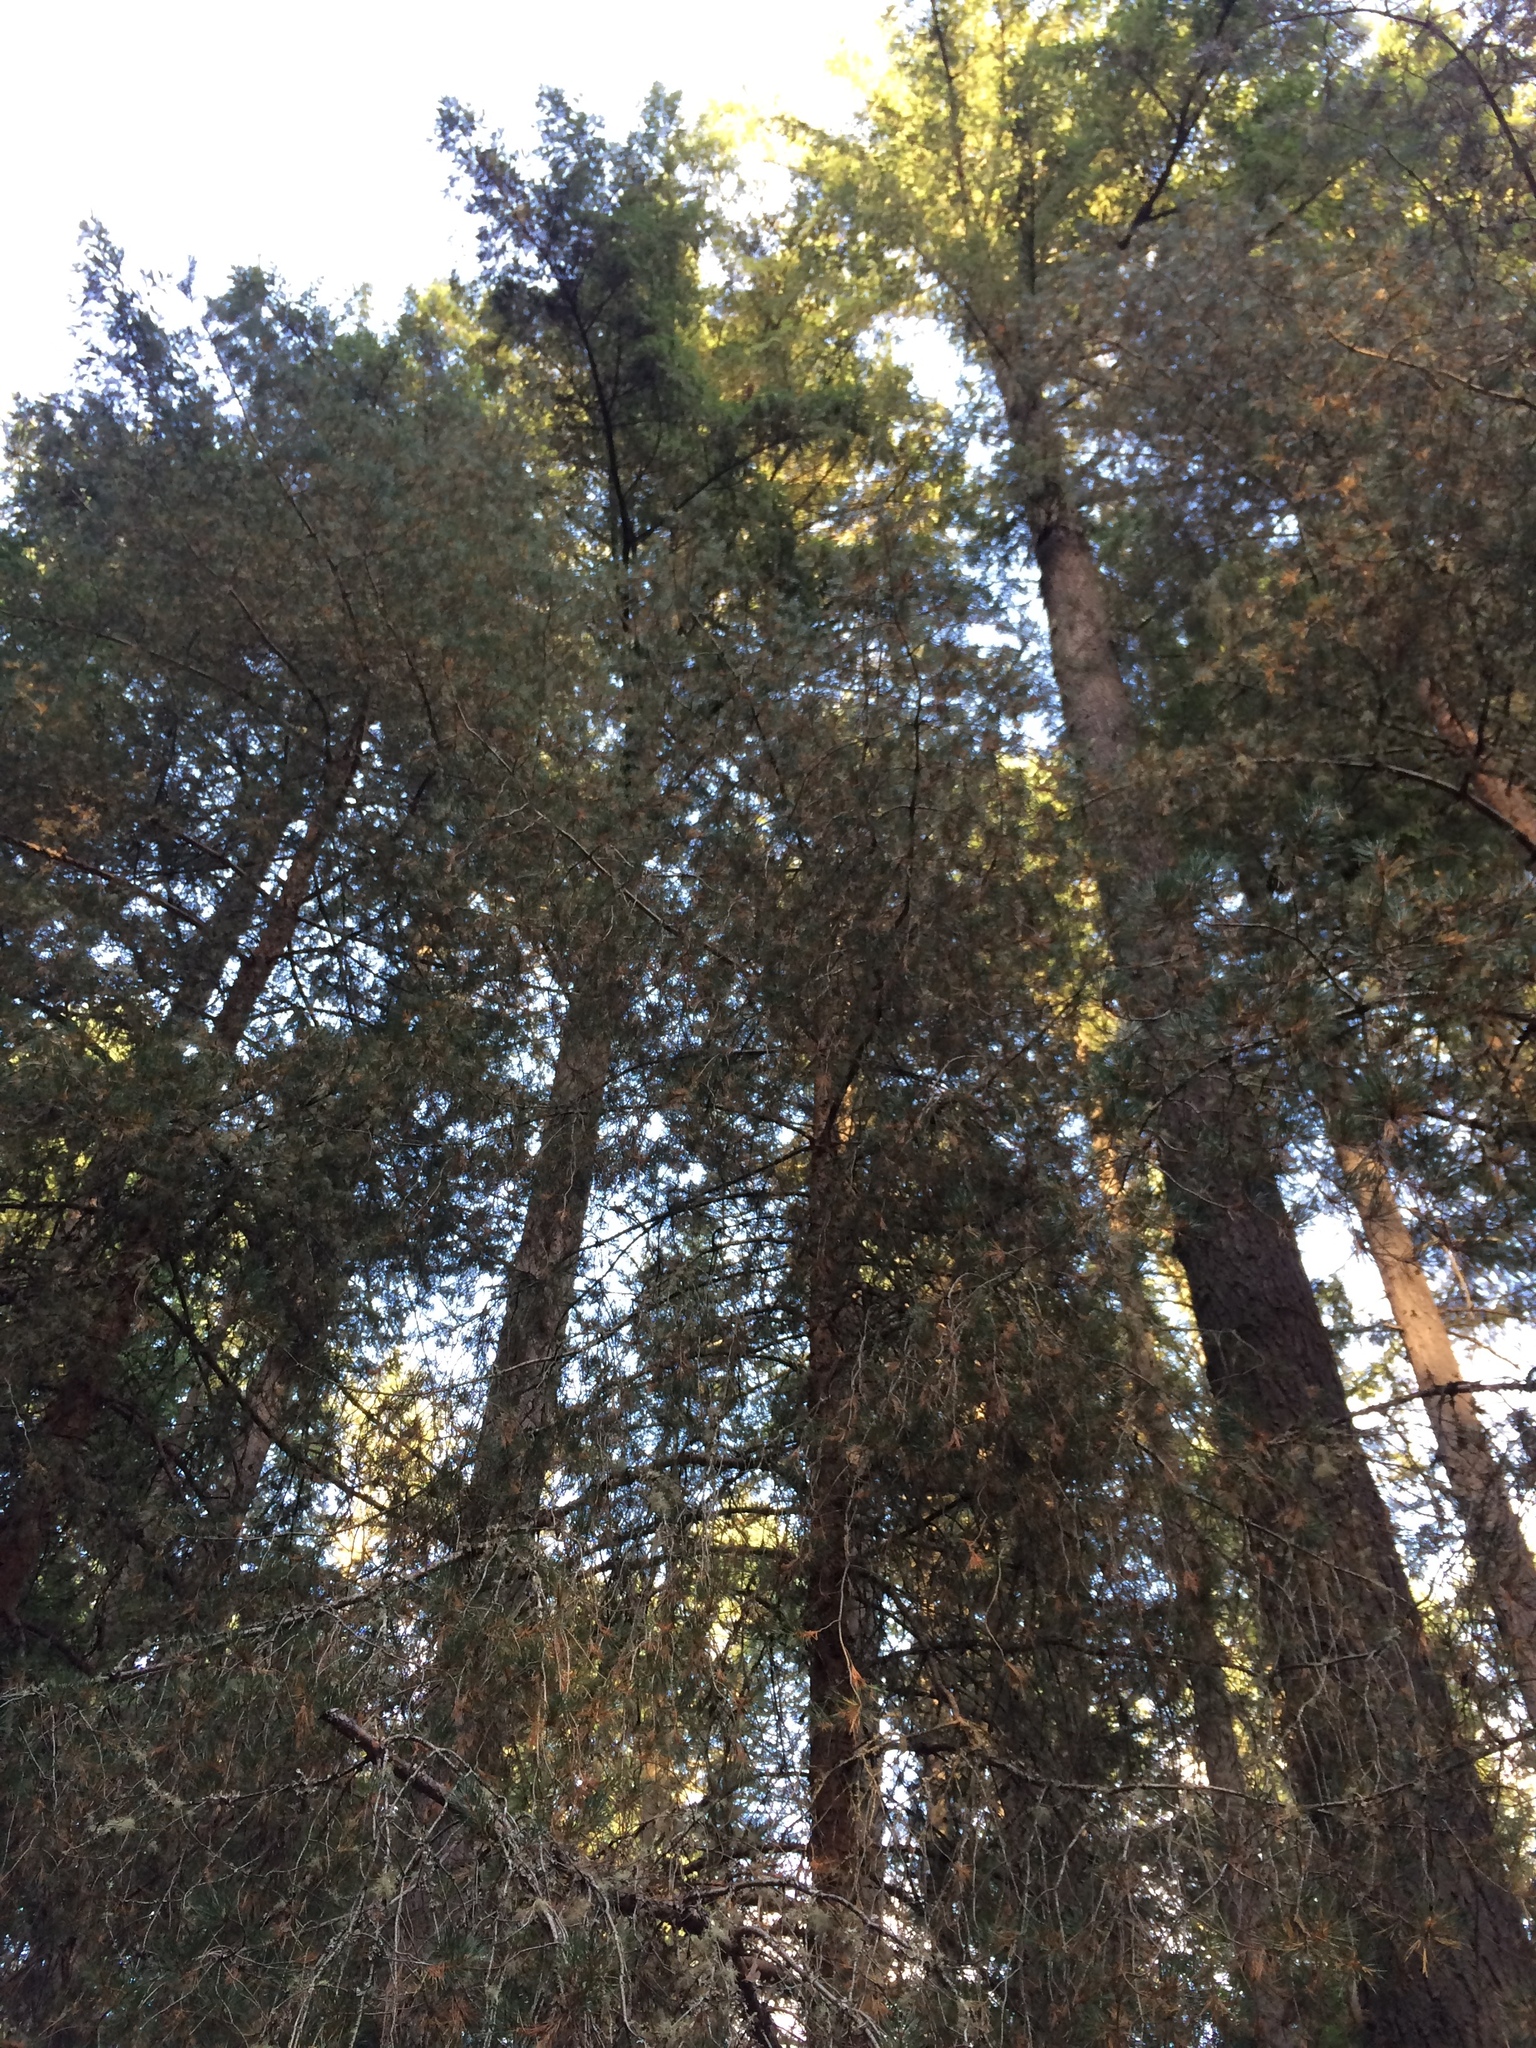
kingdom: Plantae
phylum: Tracheophyta
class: Pinopsida
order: Pinales
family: Pinaceae
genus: Pinus
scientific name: Pinus contorta
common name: Lodgepole pine
